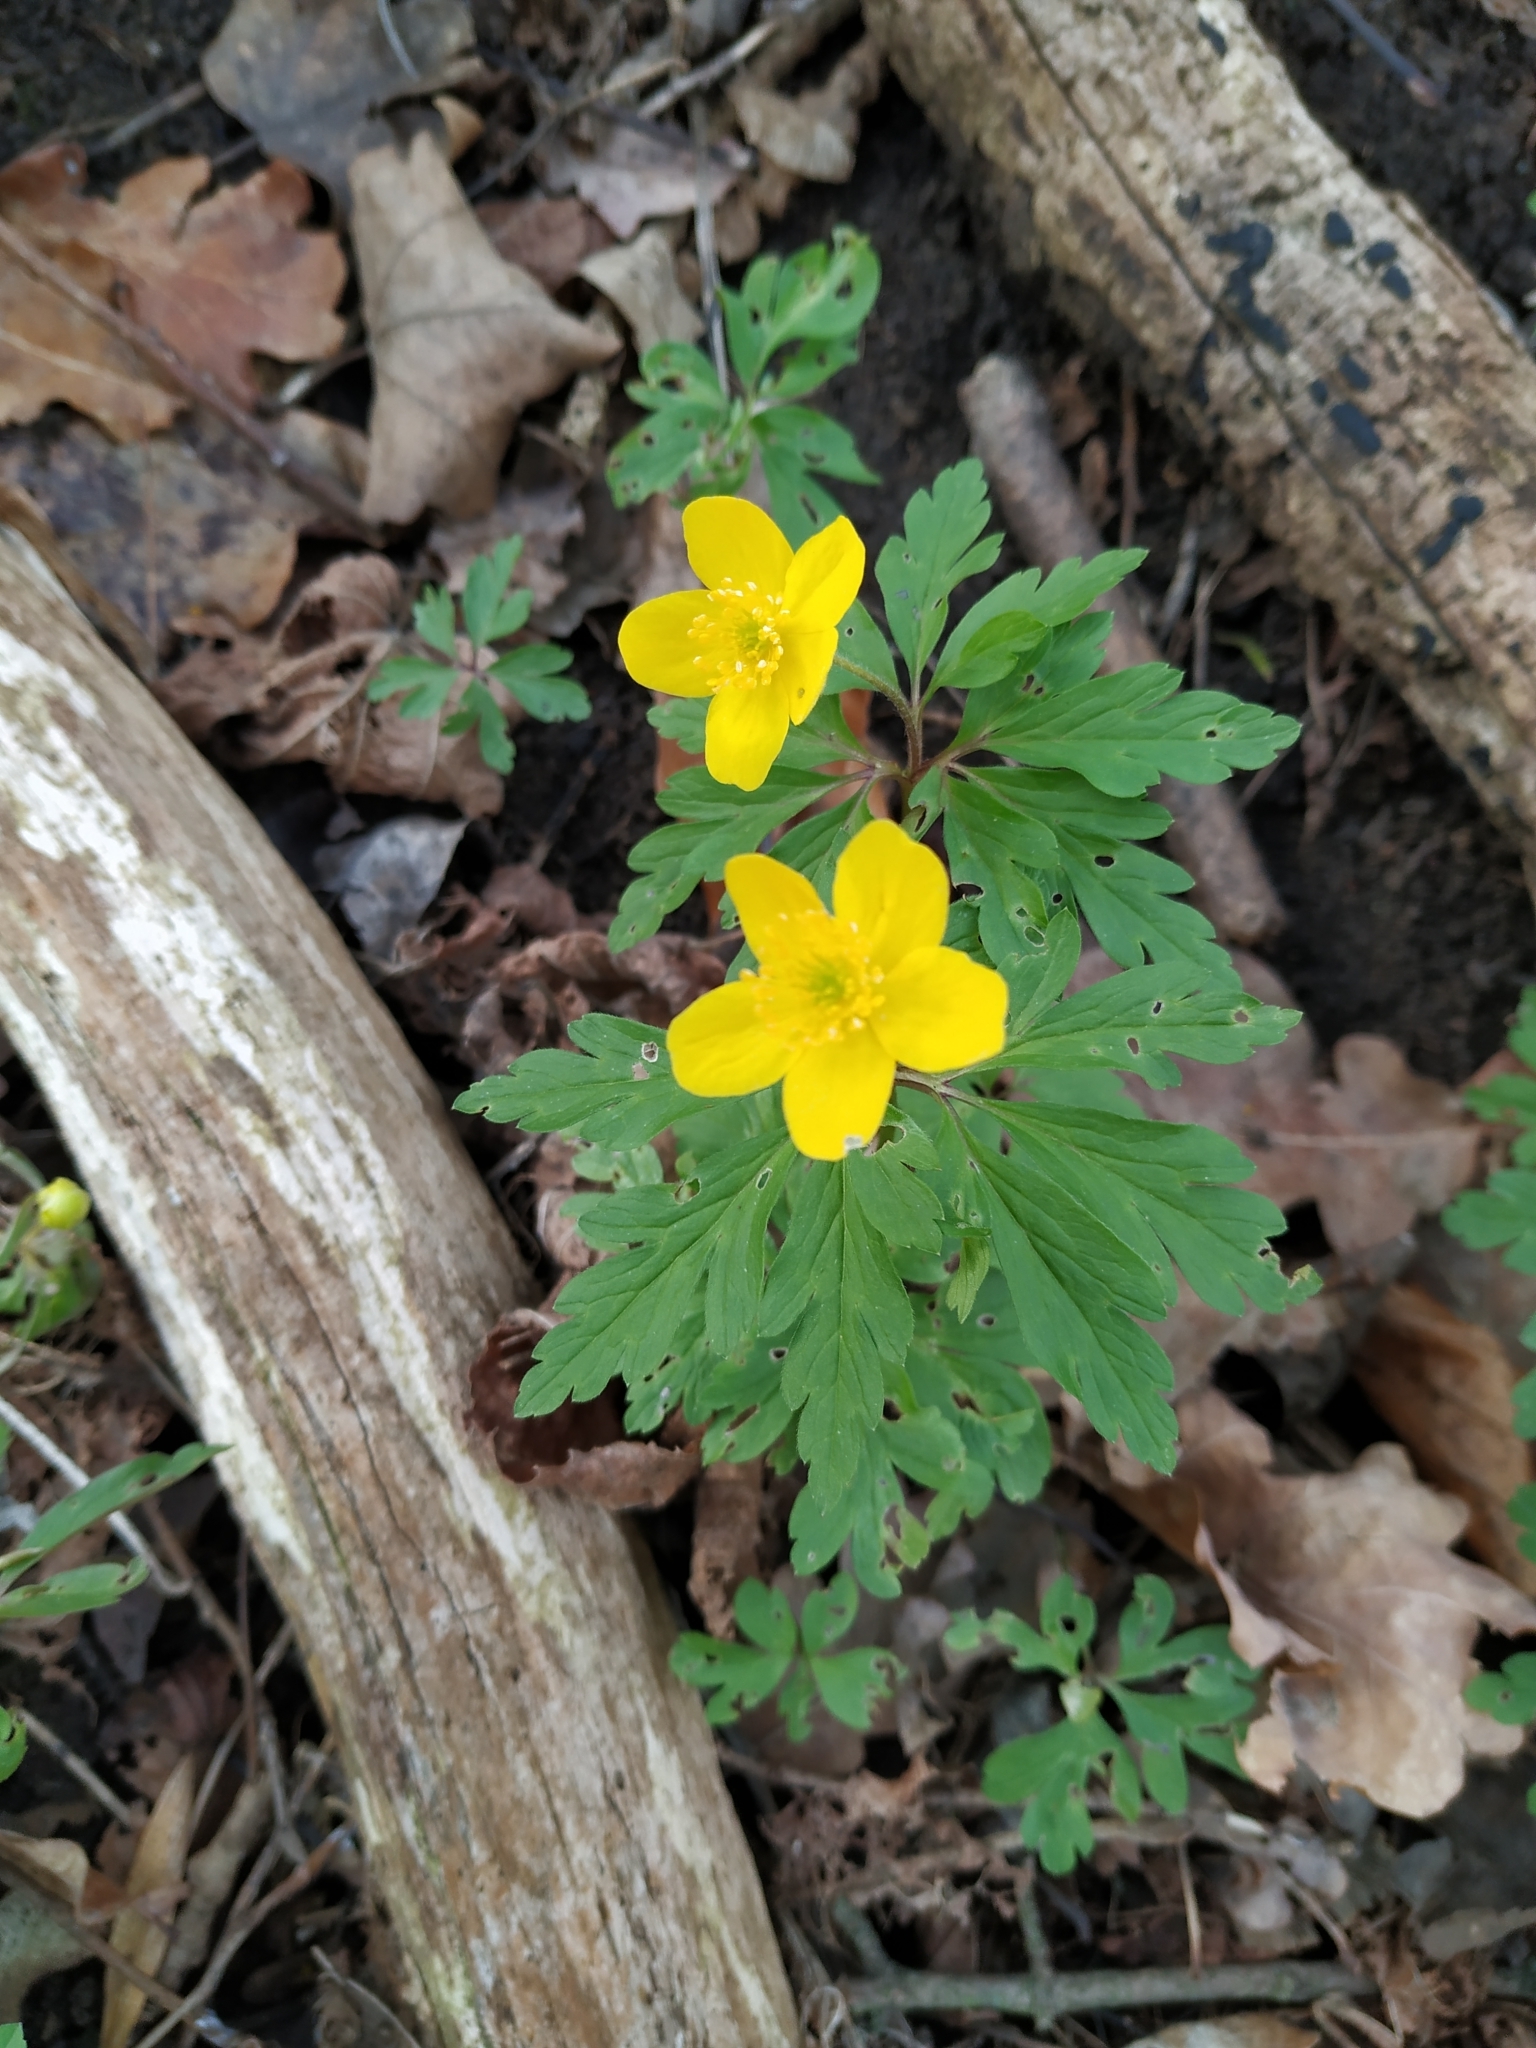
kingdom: Plantae
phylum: Tracheophyta
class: Magnoliopsida
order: Ranunculales
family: Ranunculaceae
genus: Anemone
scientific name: Anemone ranunculoides
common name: Yellow anemone
